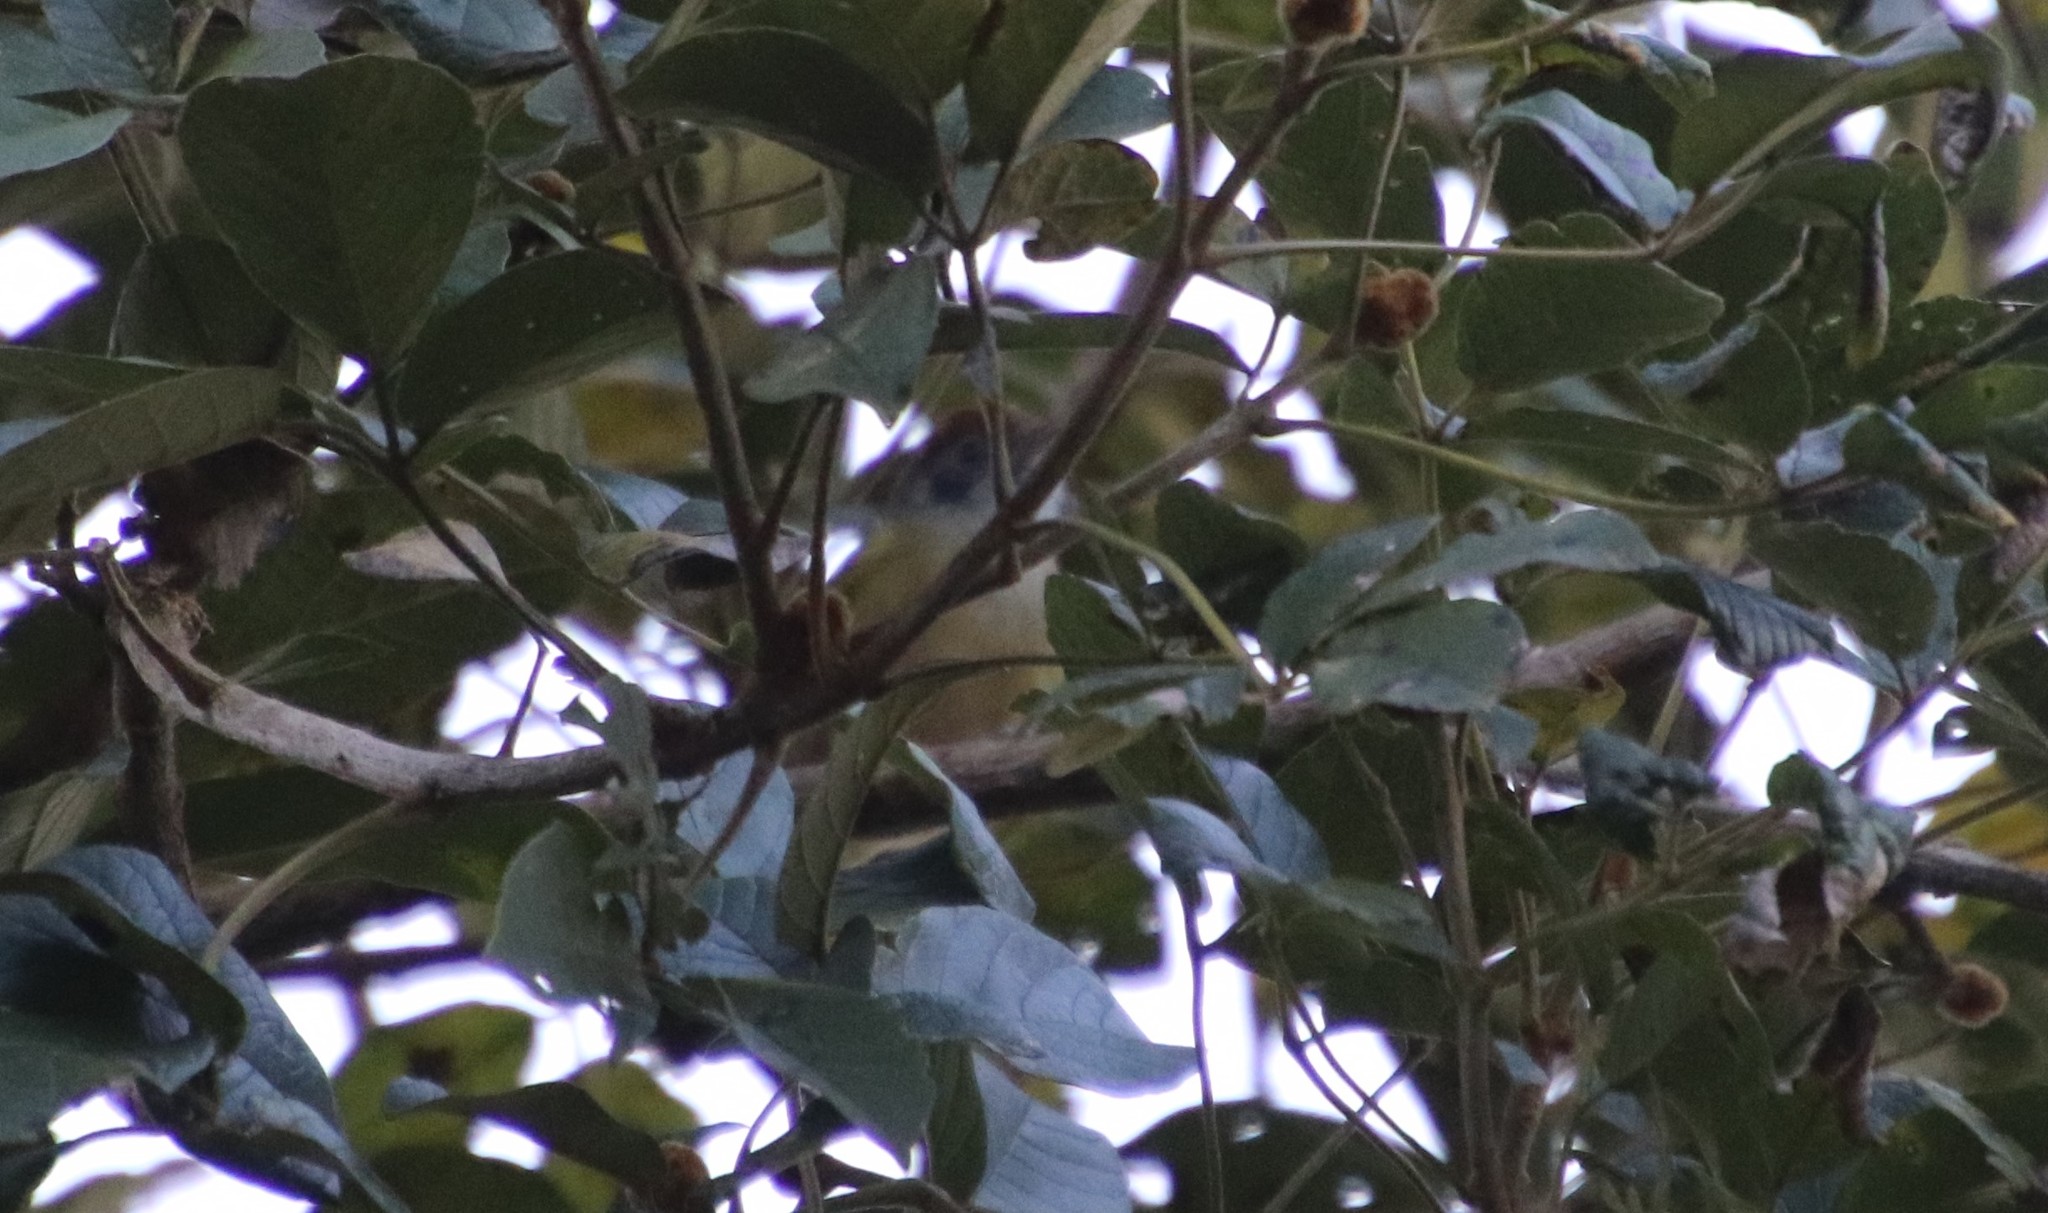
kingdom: Animalia
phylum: Chordata
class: Aves
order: Passeriformes
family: Vireonidae
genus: Hylophilus
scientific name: Hylophilus poicilotis
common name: Rufous-crowned greenlet
